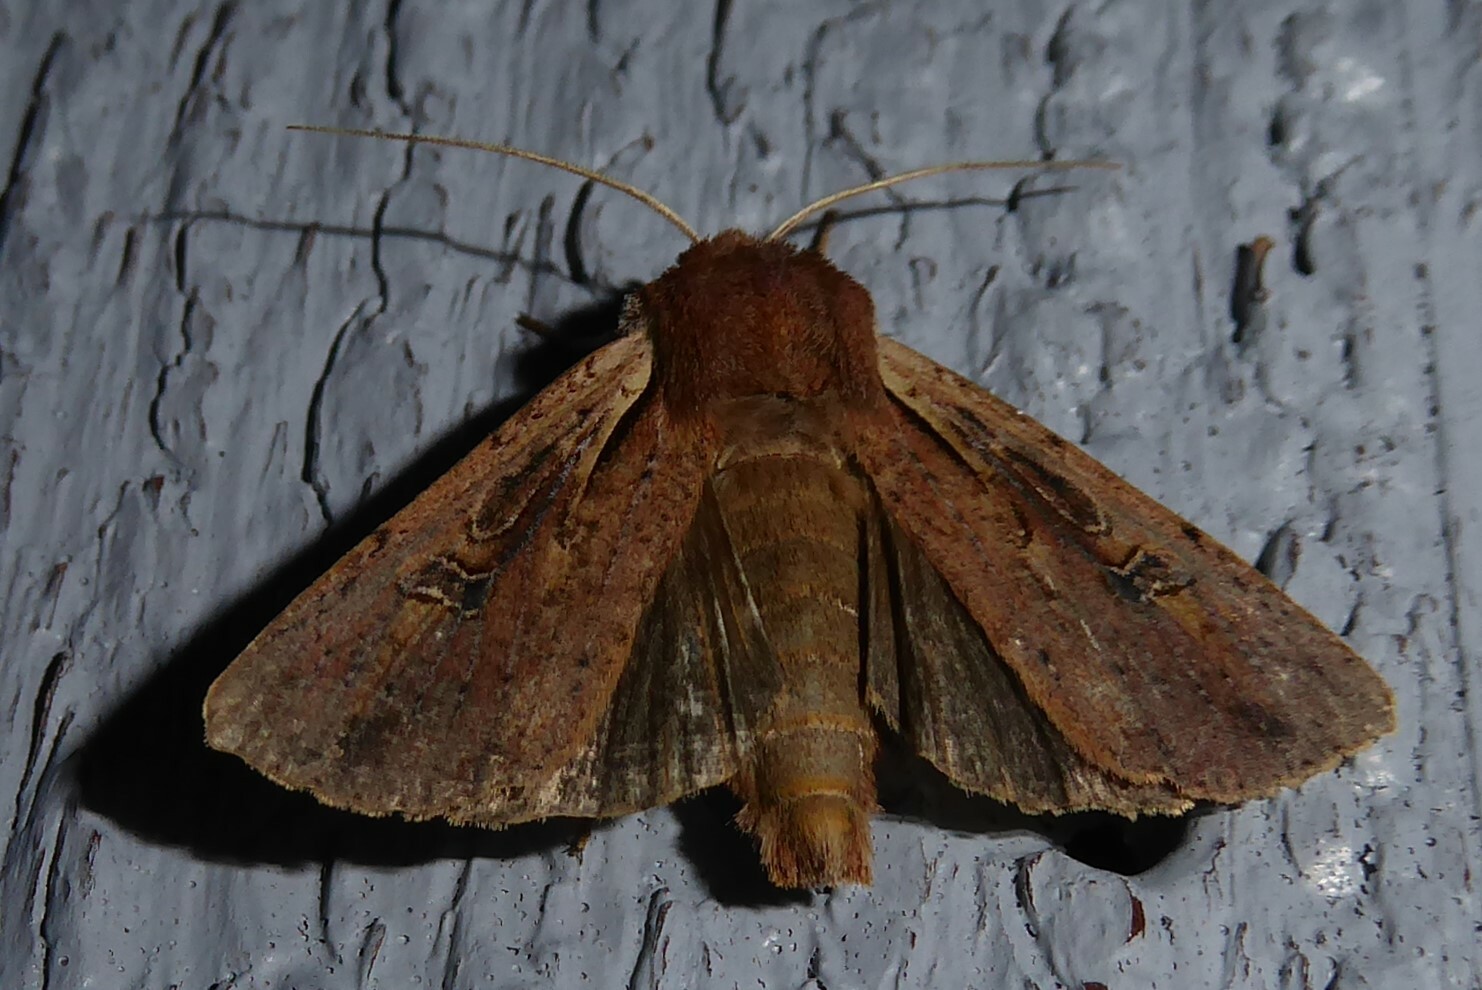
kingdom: Animalia
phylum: Arthropoda
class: Insecta
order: Lepidoptera
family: Noctuidae
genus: Ichneutica
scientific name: Ichneutica atristriga
